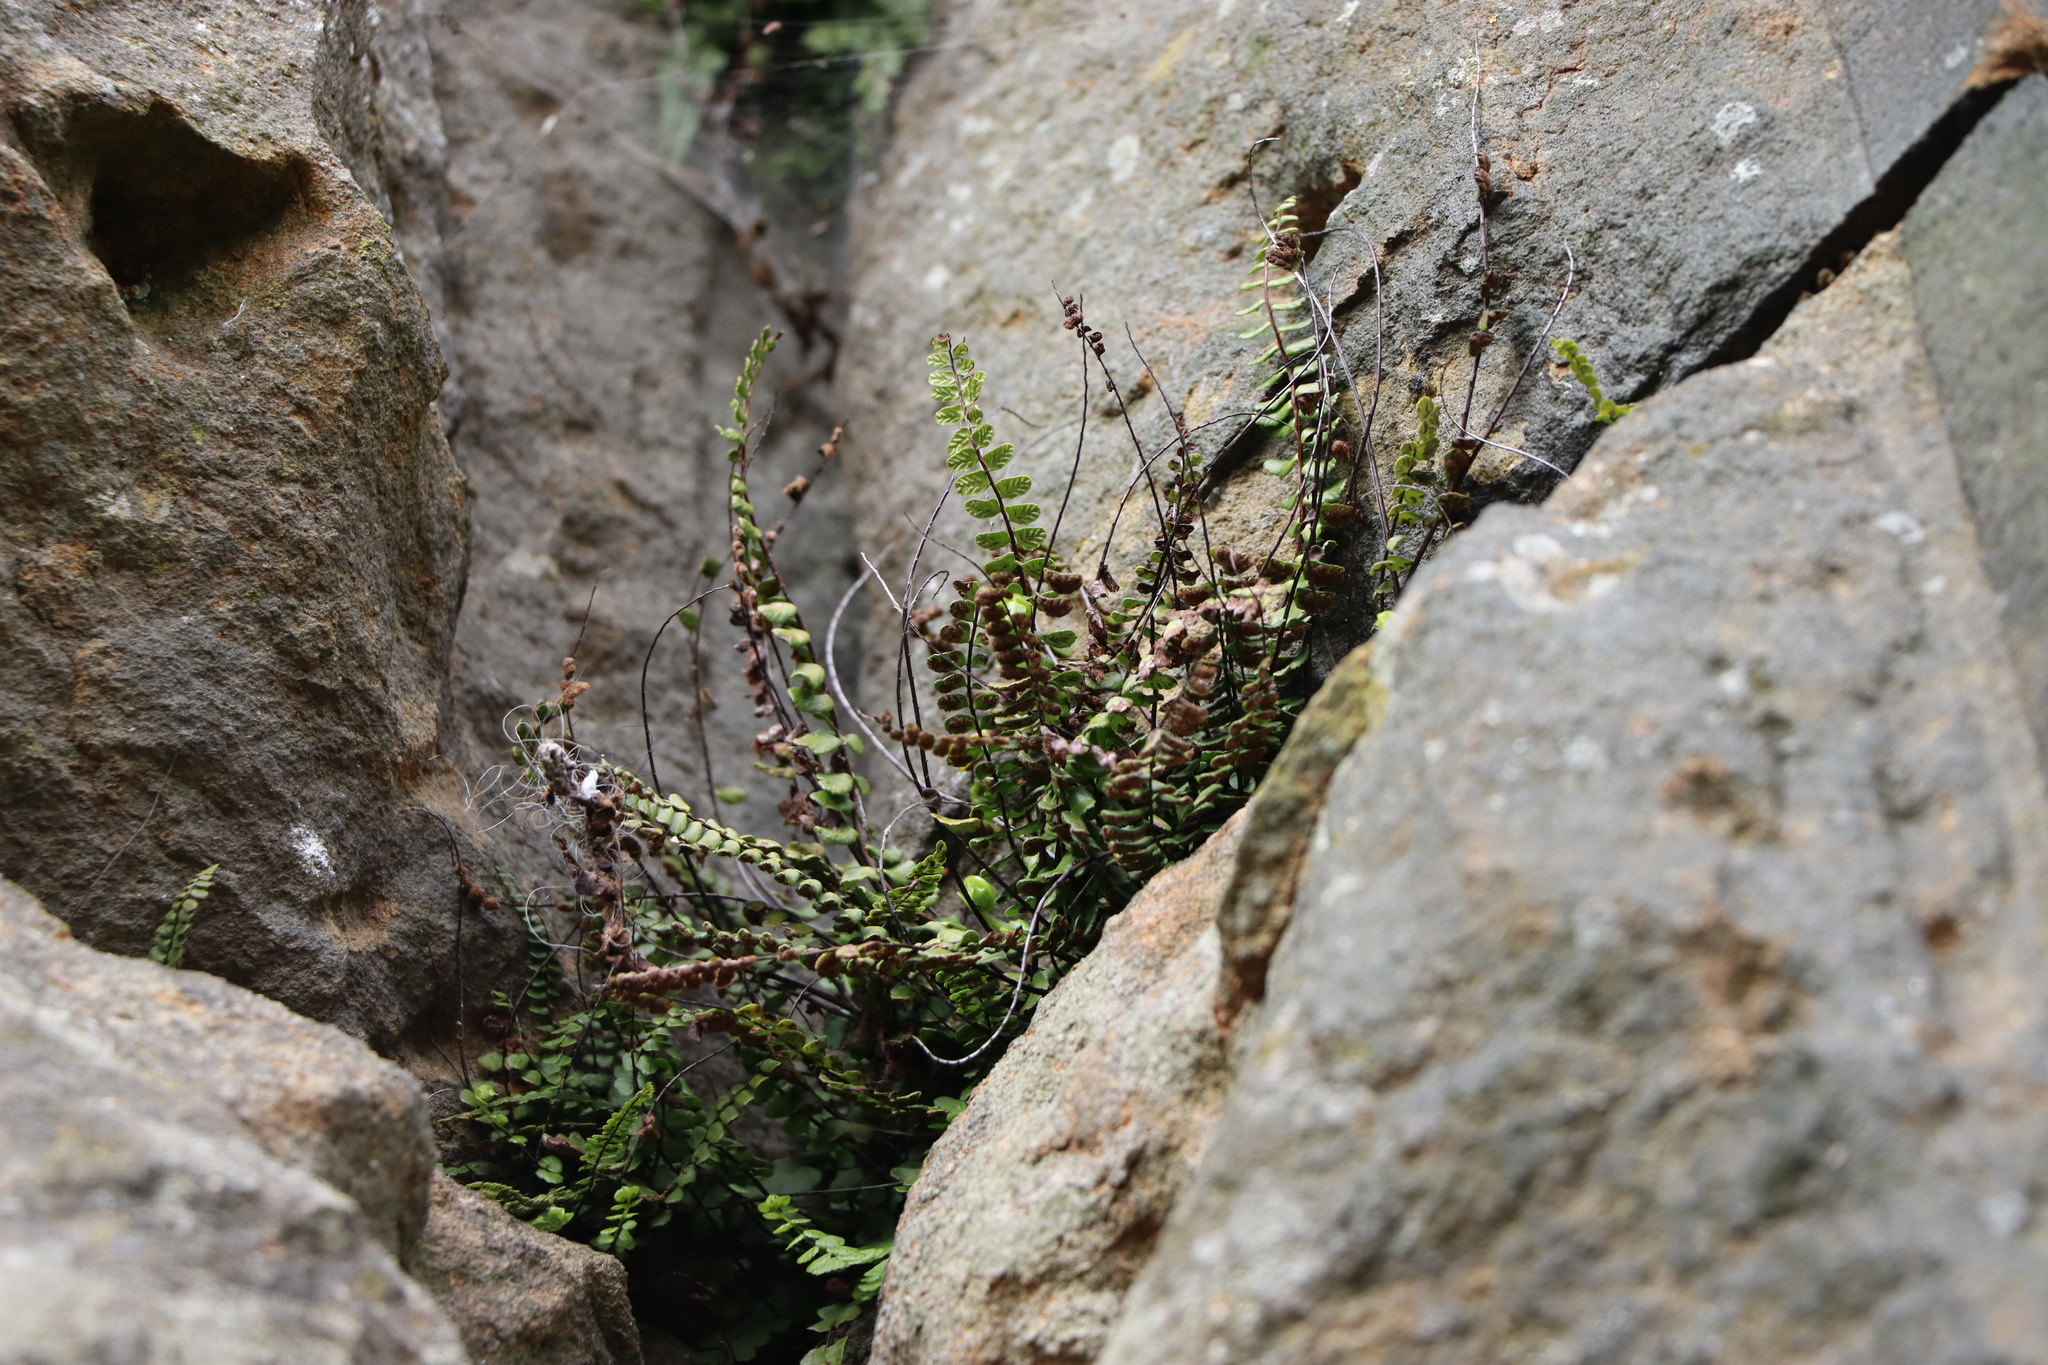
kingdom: Plantae
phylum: Tracheophyta
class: Polypodiopsida
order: Polypodiales
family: Aspleniaceae
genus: Asplenium
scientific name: Asplenium trichomanes
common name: Maidenhair spleenwort
